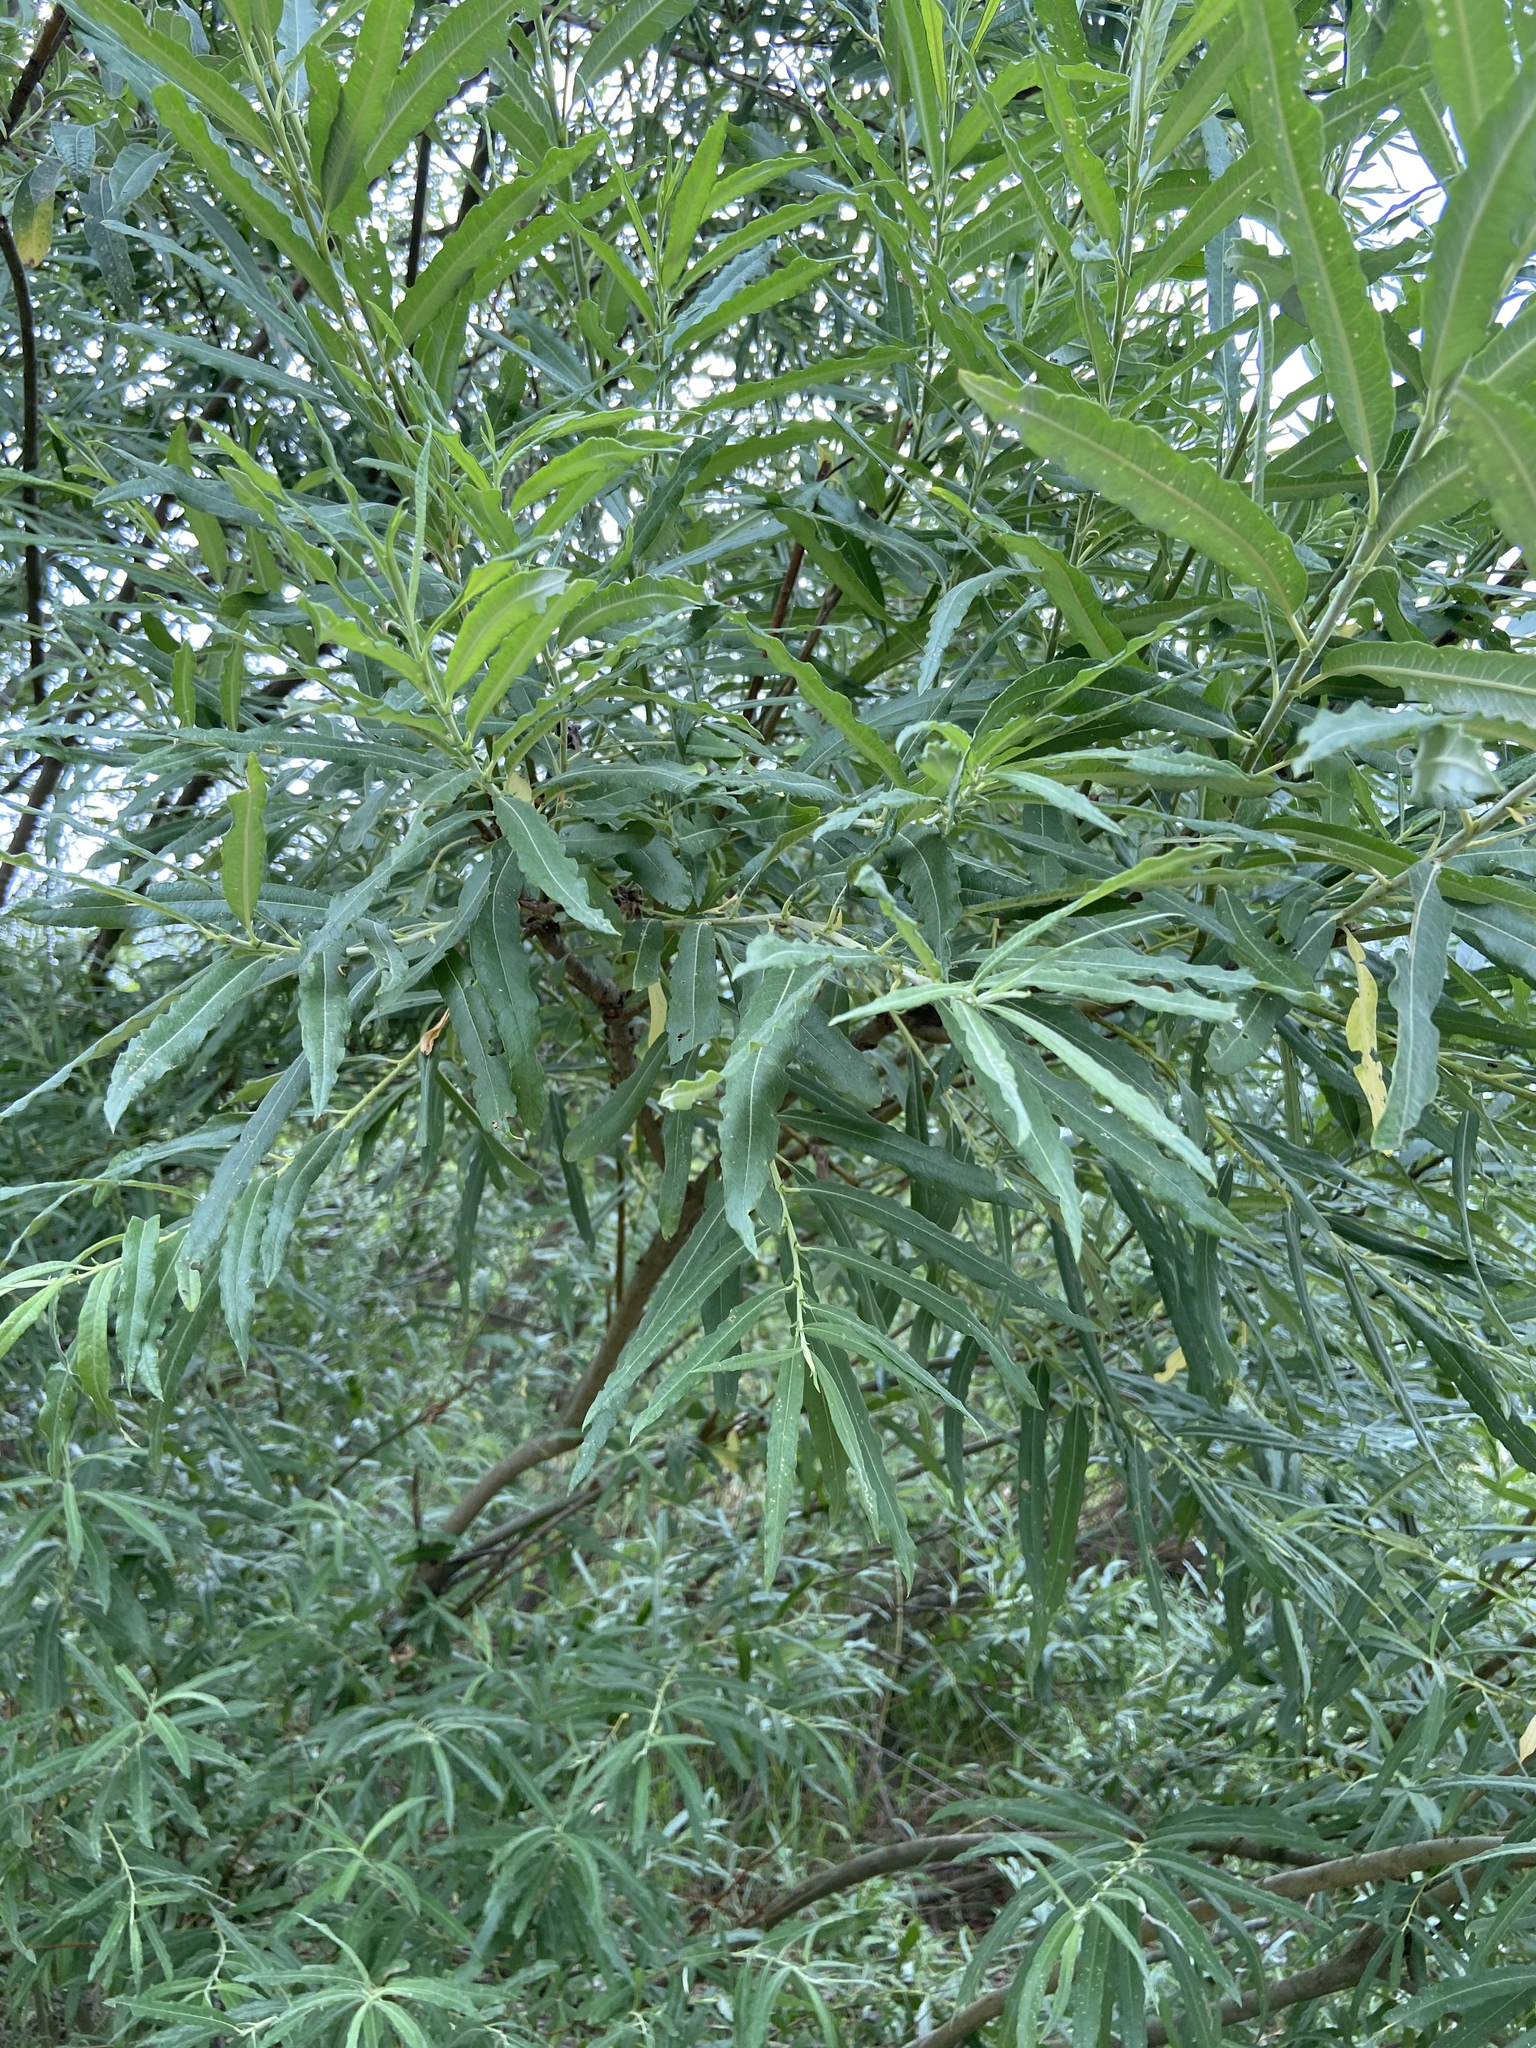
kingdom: Plantae
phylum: Tracheophyta
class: Magnoliopsida
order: Malpighiales
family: Salicaceae
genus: Salix
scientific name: Salix viminalis
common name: Osier
